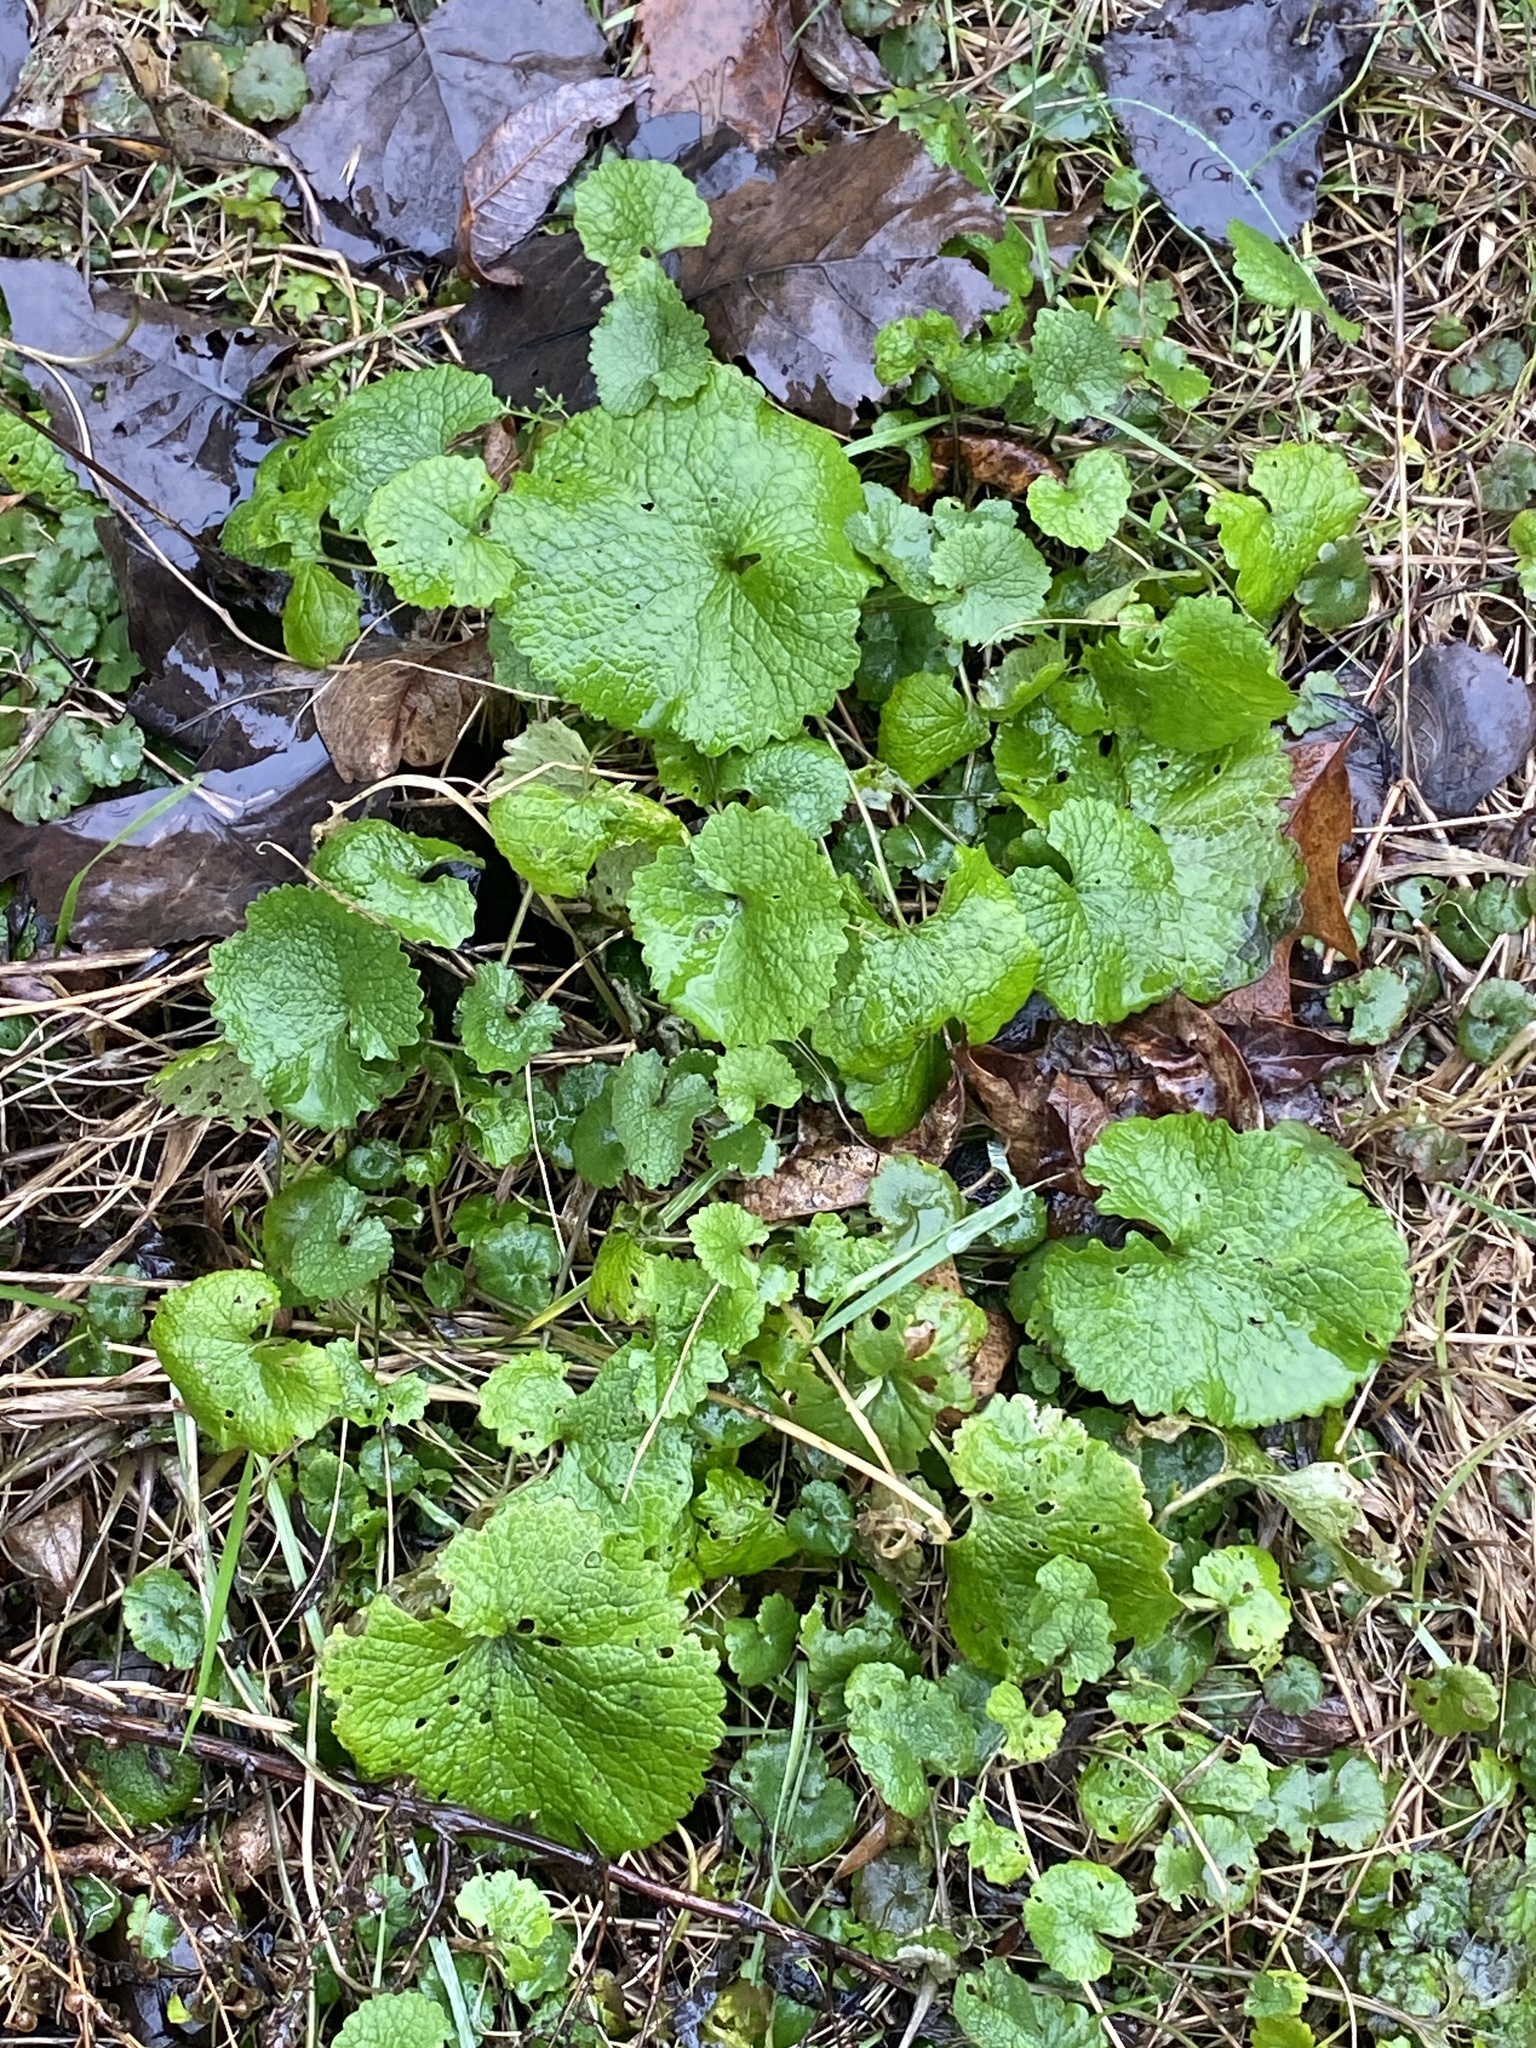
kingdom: Plantae
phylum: Tracheophyta
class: Magnoliopsida
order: Brassicales
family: Brassicaceae
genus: Alliaria
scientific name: Alliaria petiolata
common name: Garlic mustard
